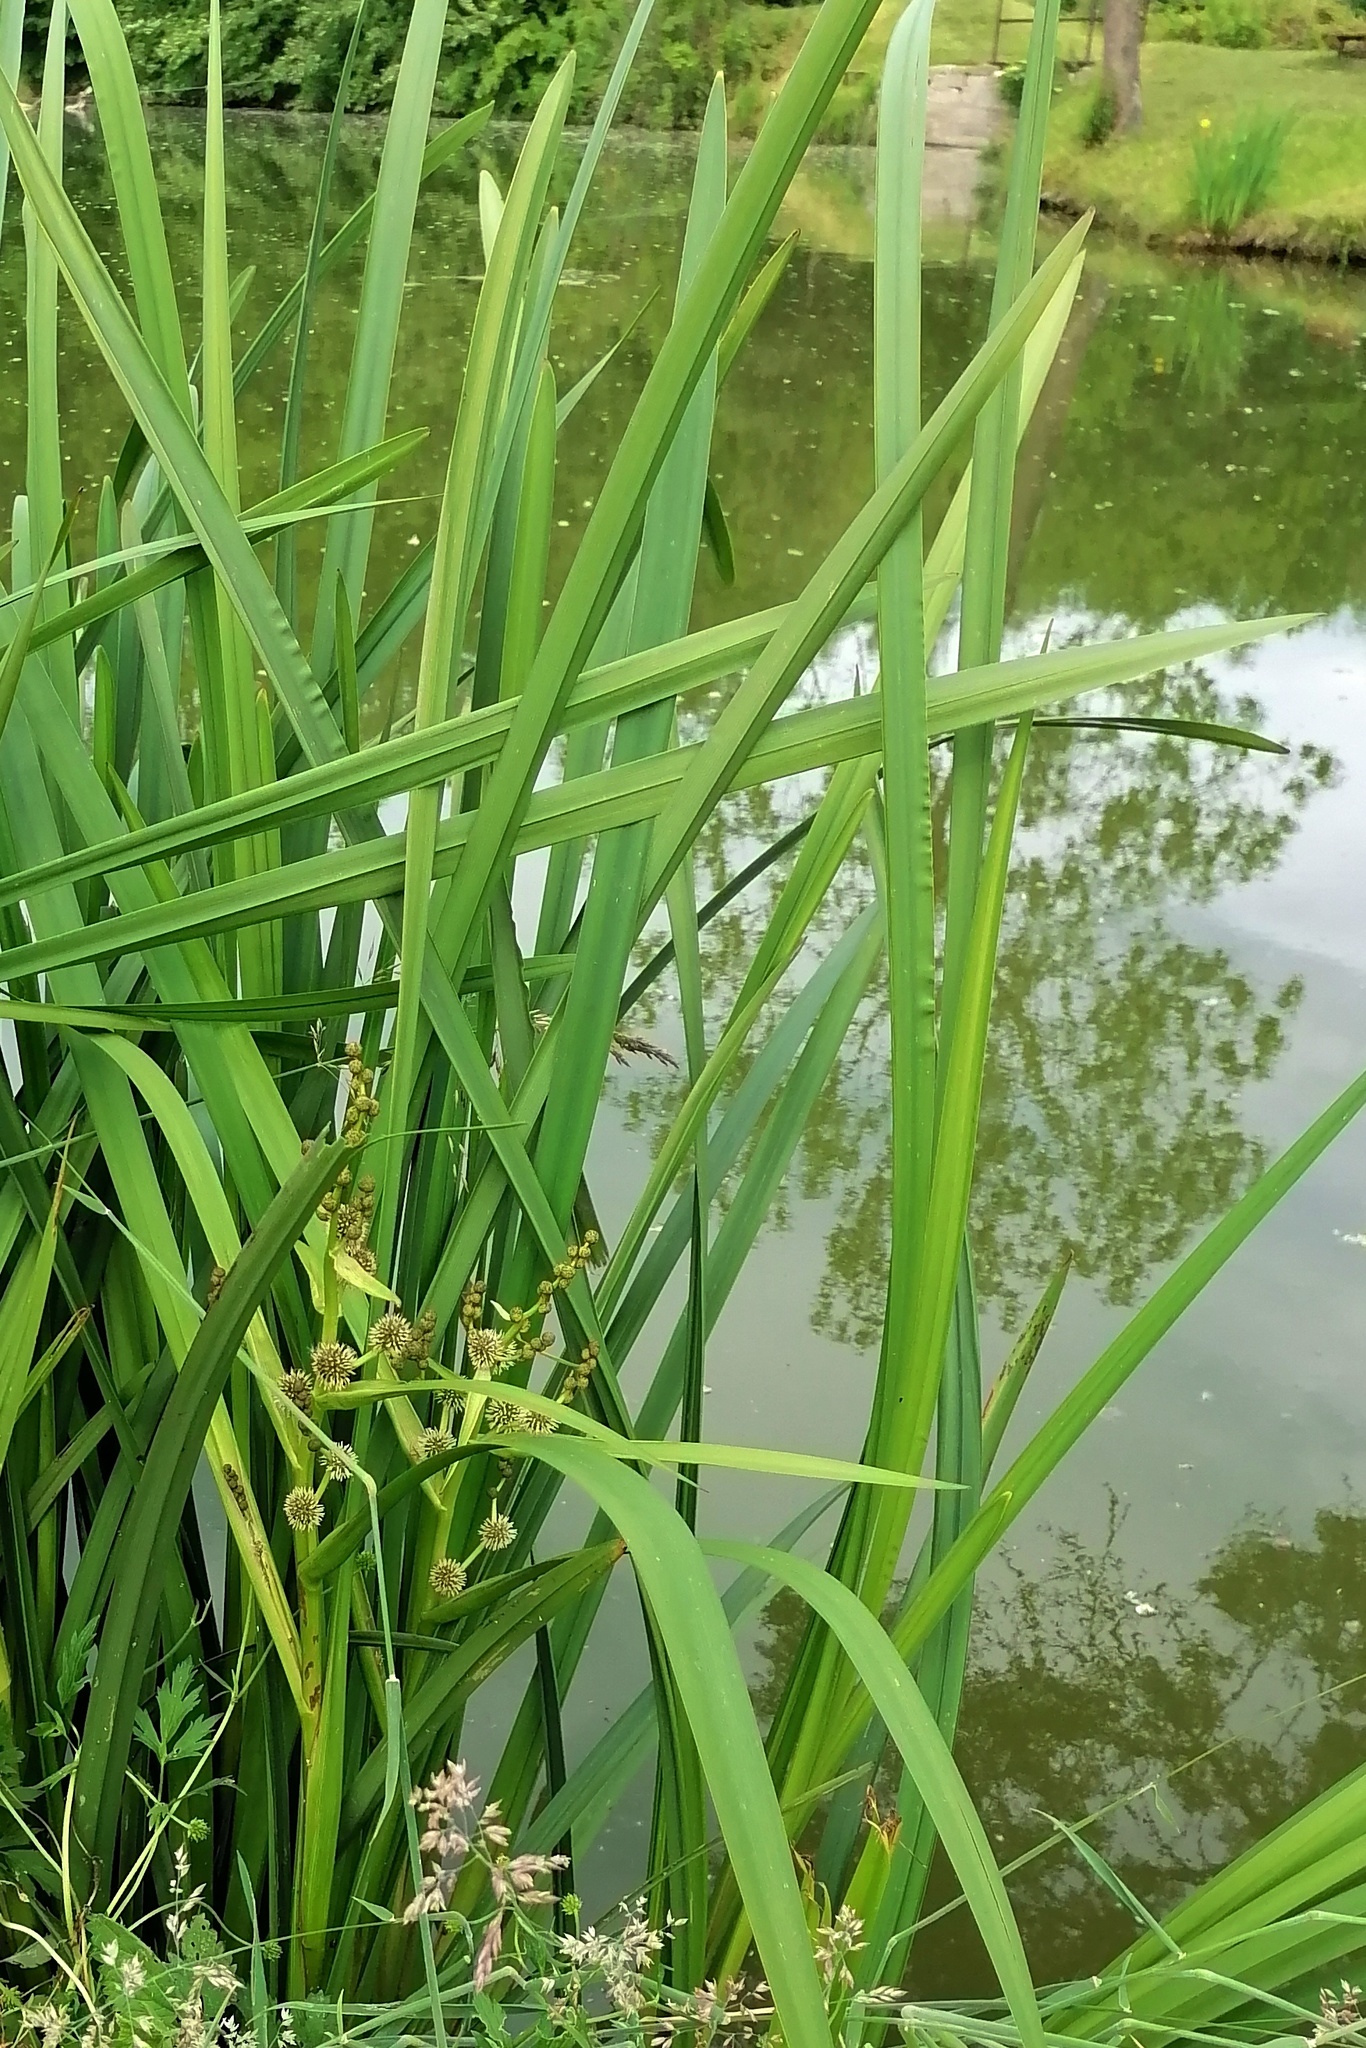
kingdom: Plantae
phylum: Tracheophyta
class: Liliopsida
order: Poales
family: Typhaceae
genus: Sparganium
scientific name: Sparganium erectum
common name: Branched bur-reed
